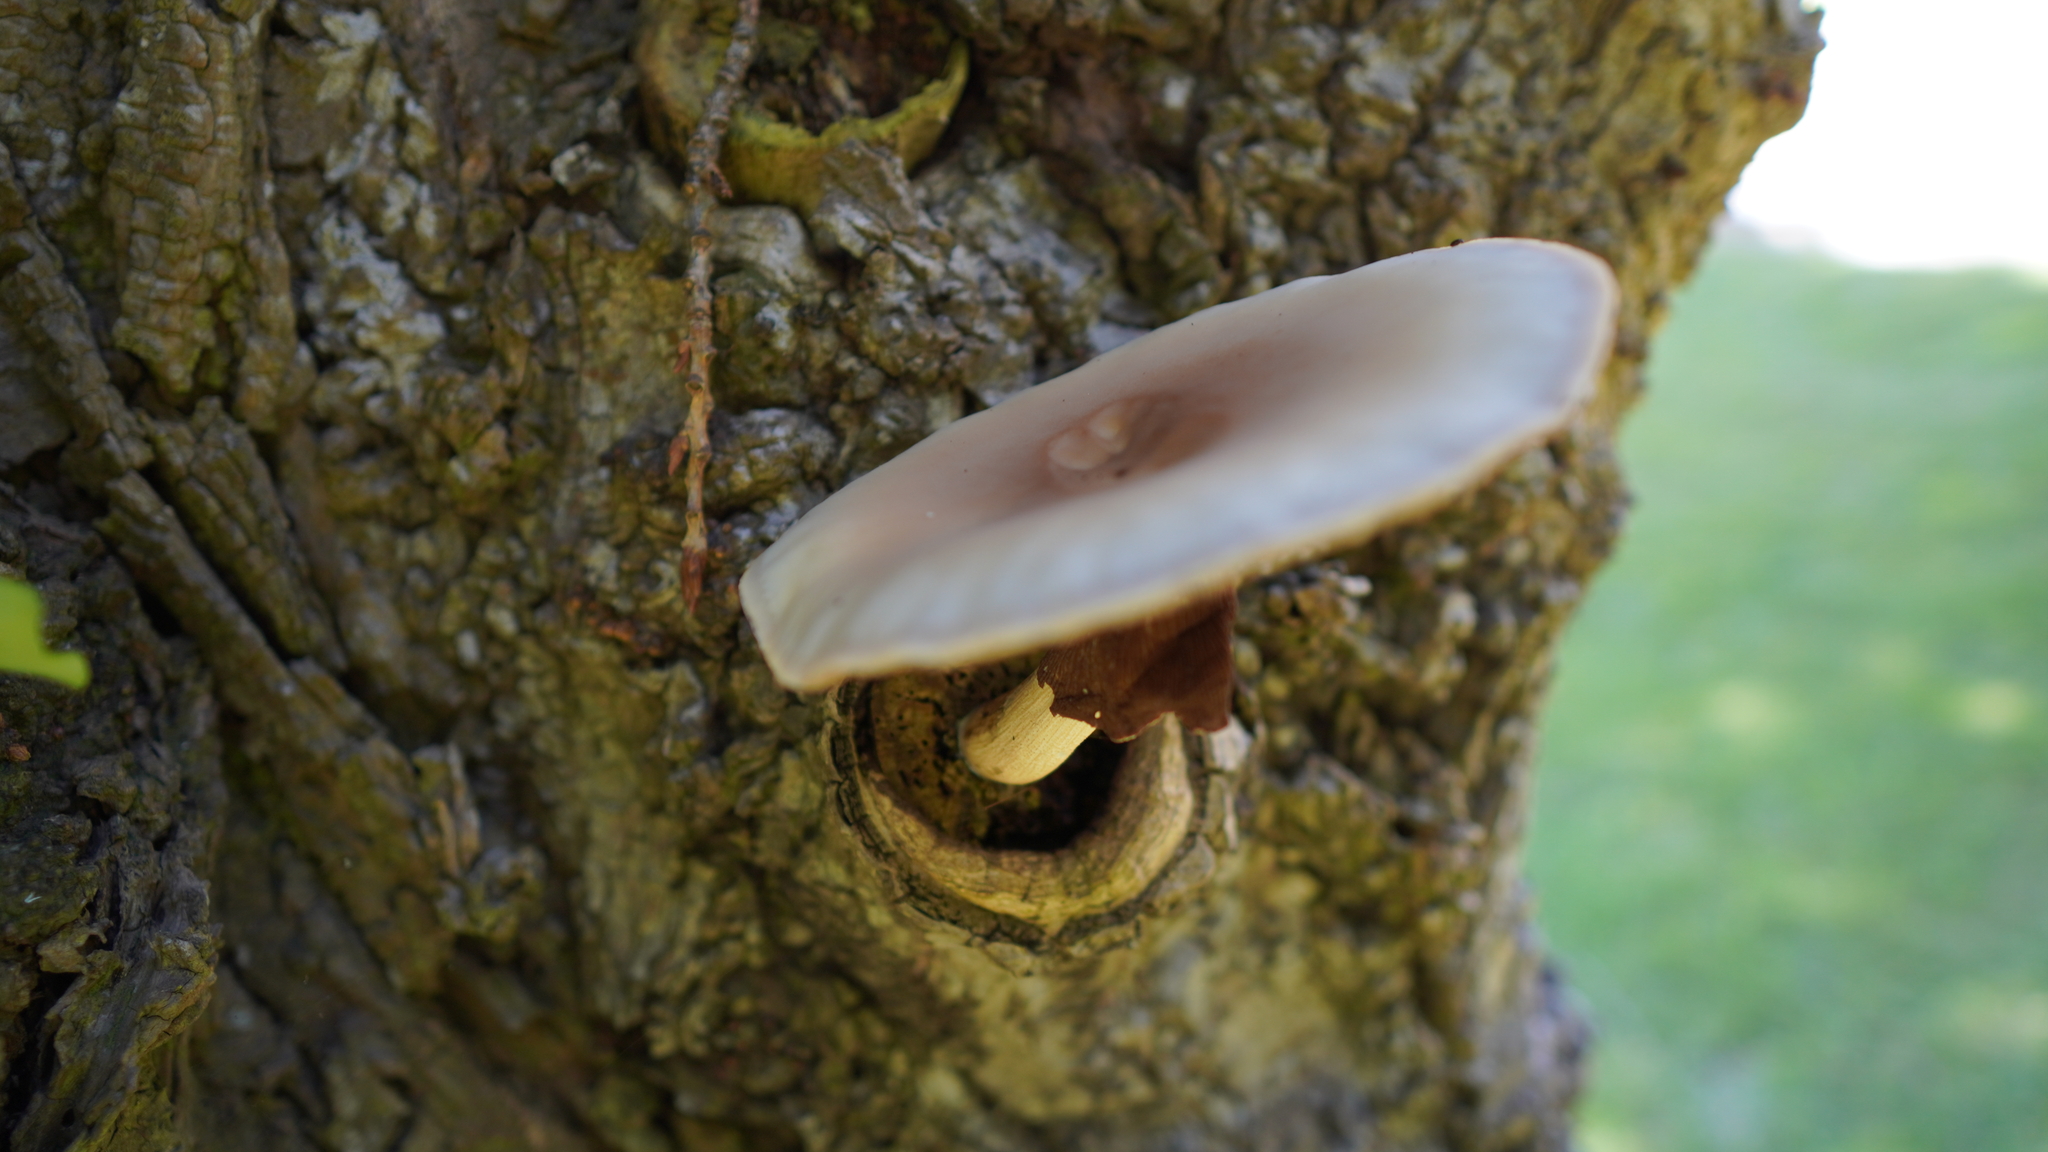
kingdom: Fungi
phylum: Basidiomycota
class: Agaricomycetes
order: Agaricales
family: Tubariaceae
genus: Cyclocybe
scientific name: Cyclocybe parasitica
